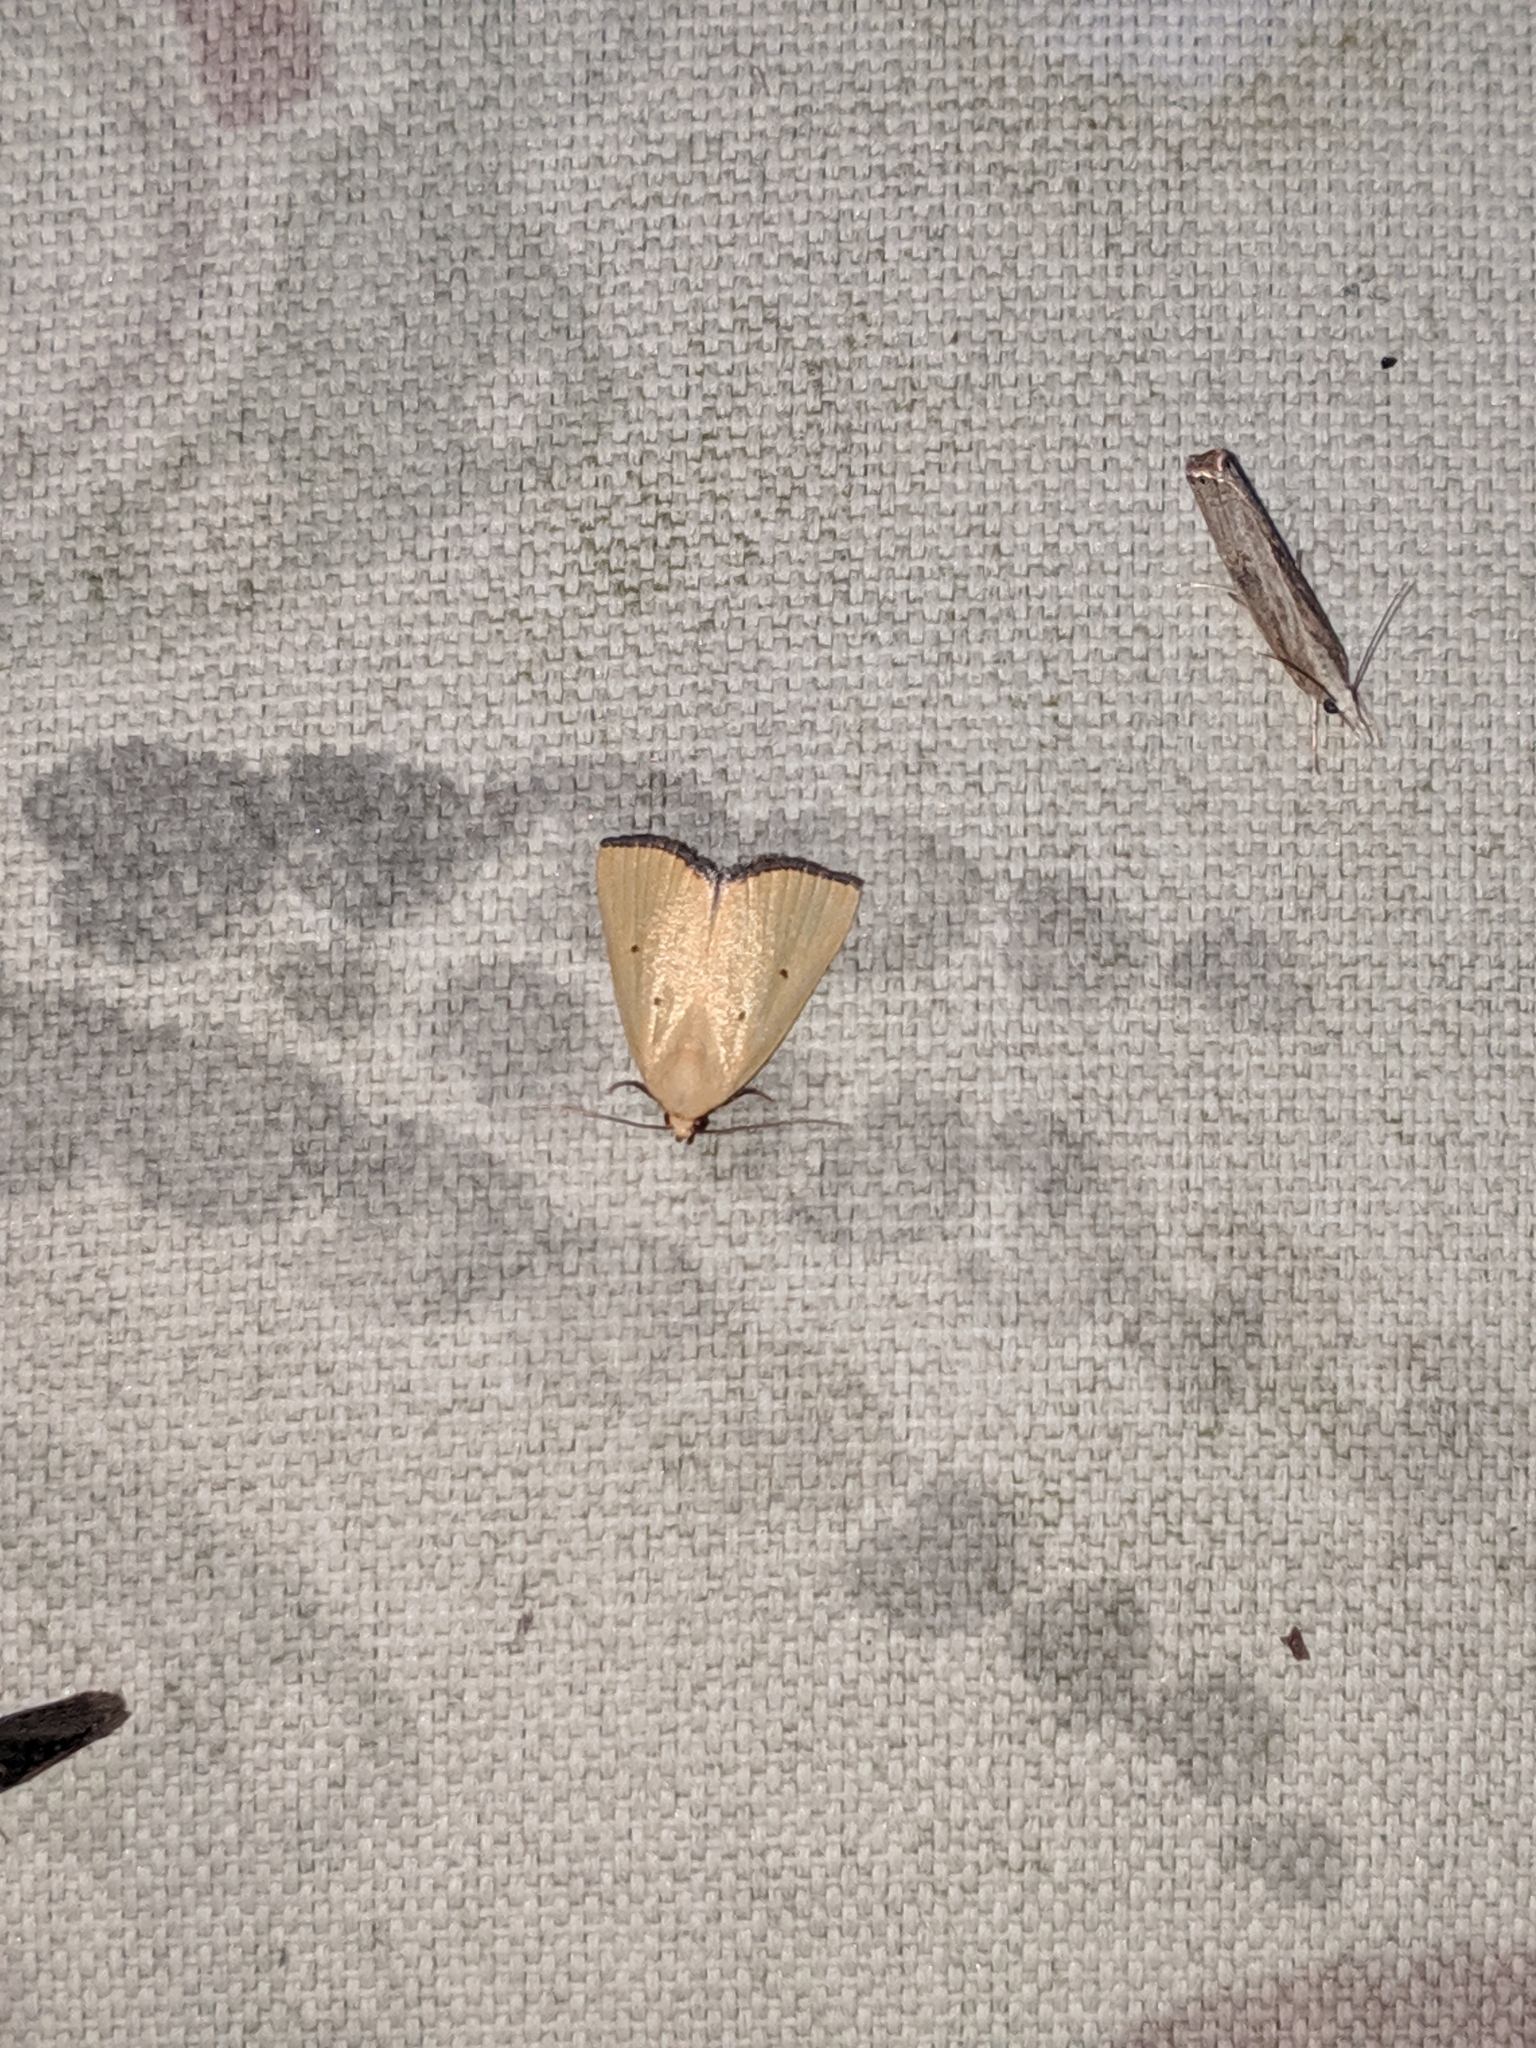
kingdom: Animalia
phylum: Arthropoda
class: Insecta
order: Lepidoptera
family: Noctuidae
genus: Marimatha
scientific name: Marimatha nigrofimbria
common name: Black-bordered lemon moth
